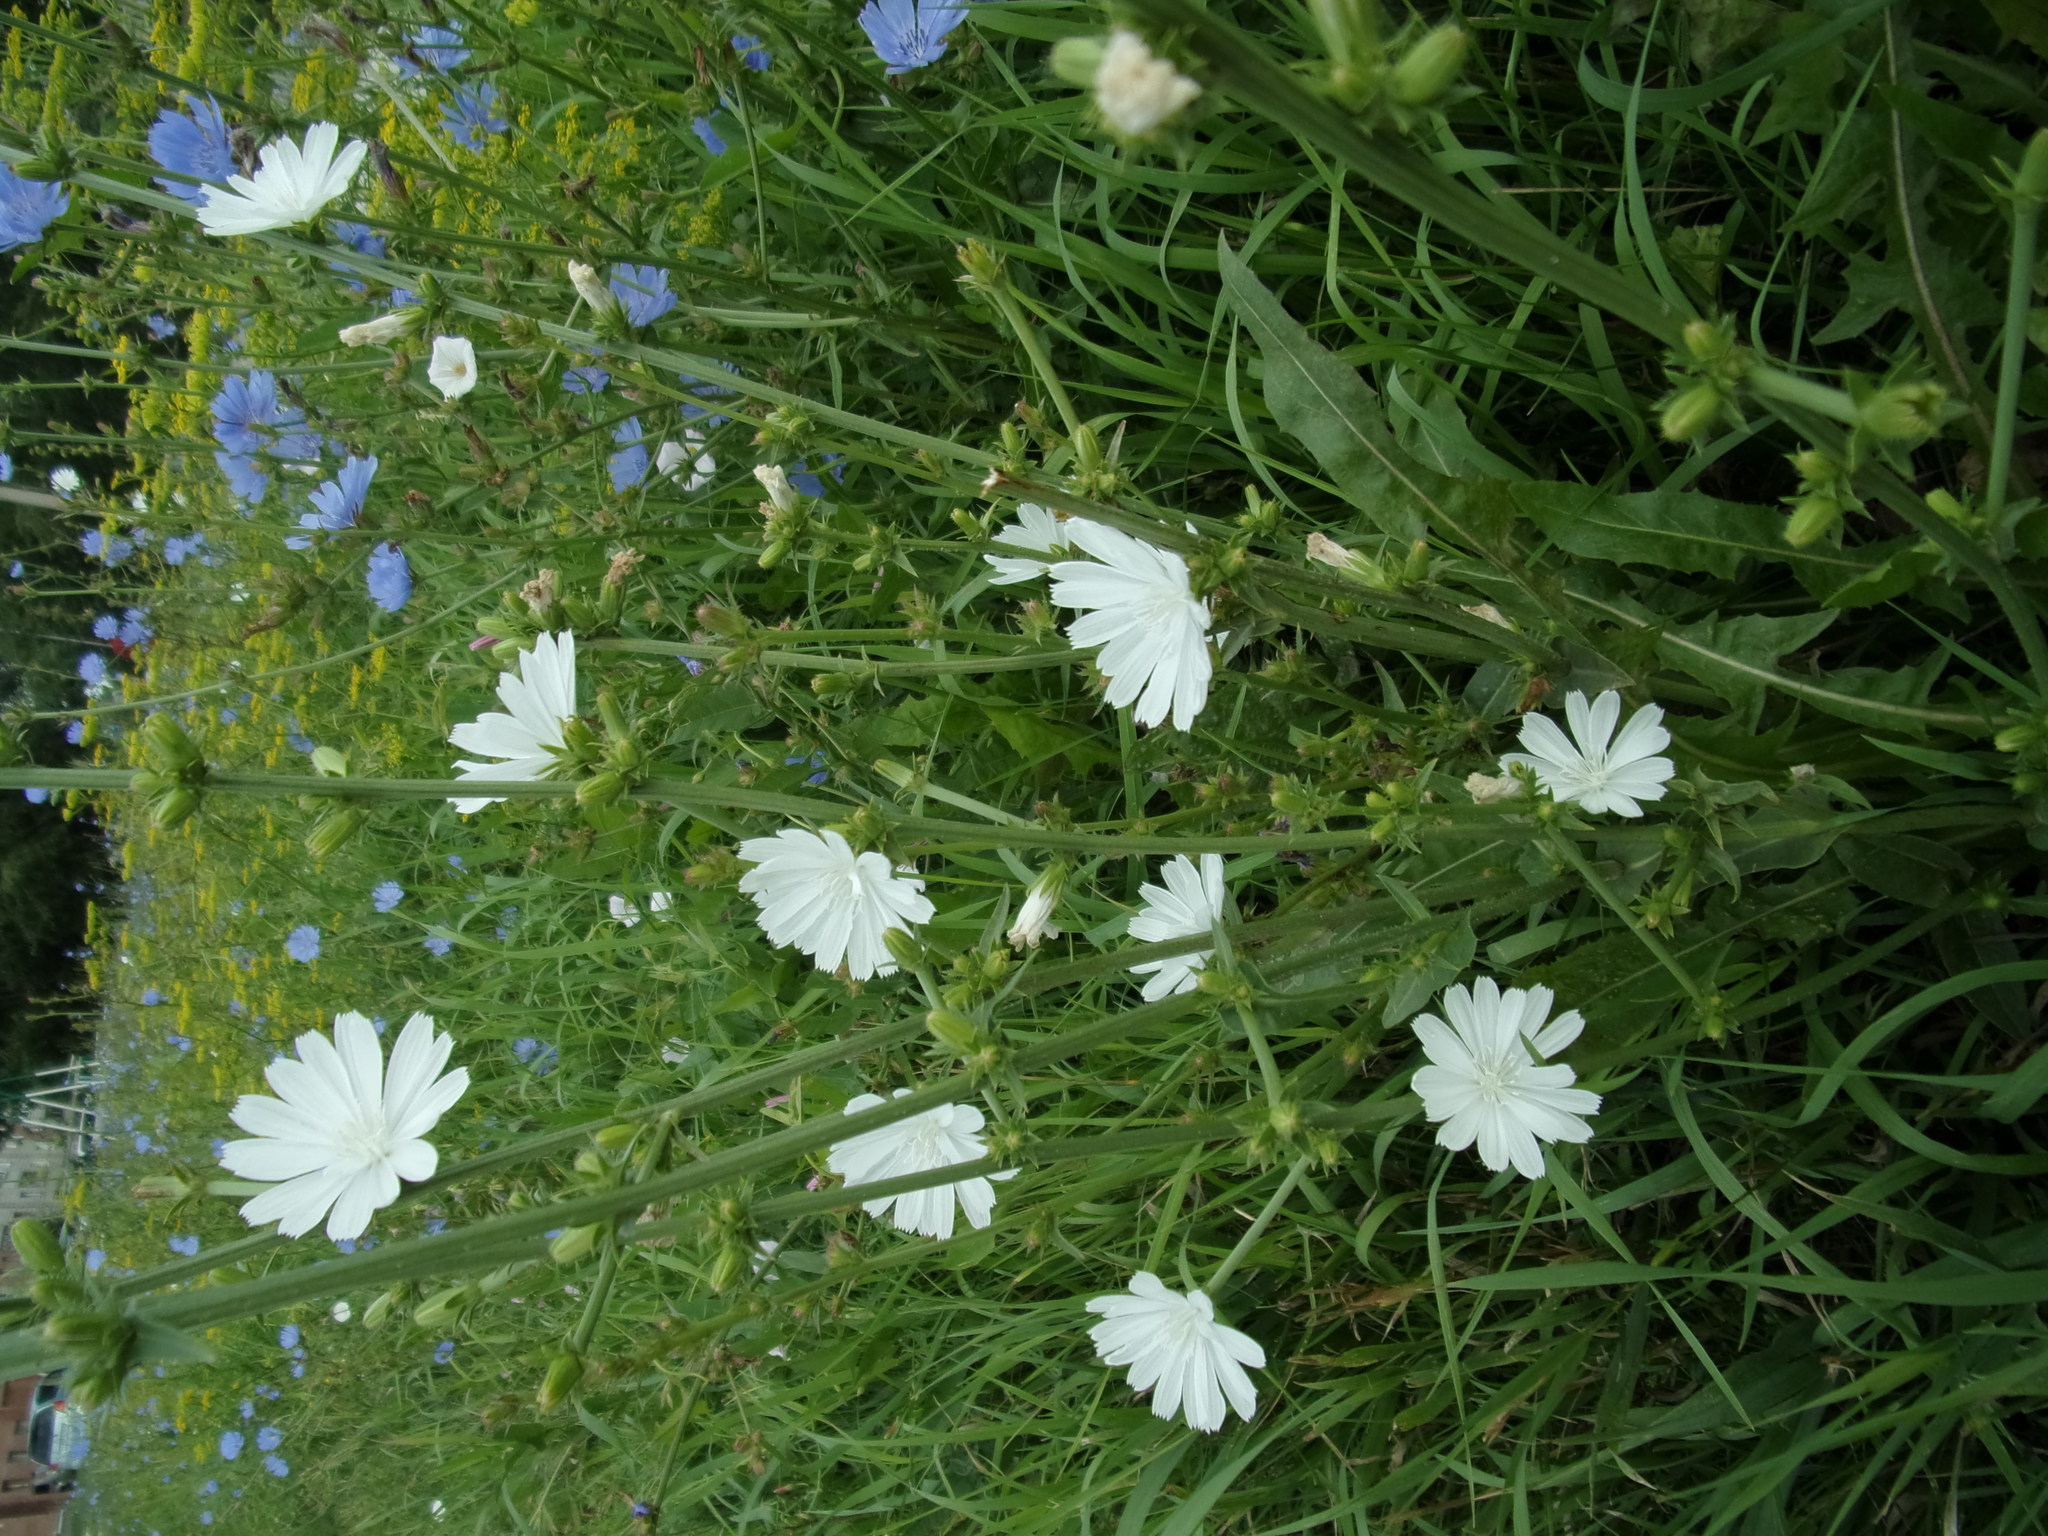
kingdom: Plantae
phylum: Tracheophyta
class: Magnoliopsida
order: Asterales
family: Asteraceae
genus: Cichorium
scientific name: Cichorium intybus
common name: Chicory
